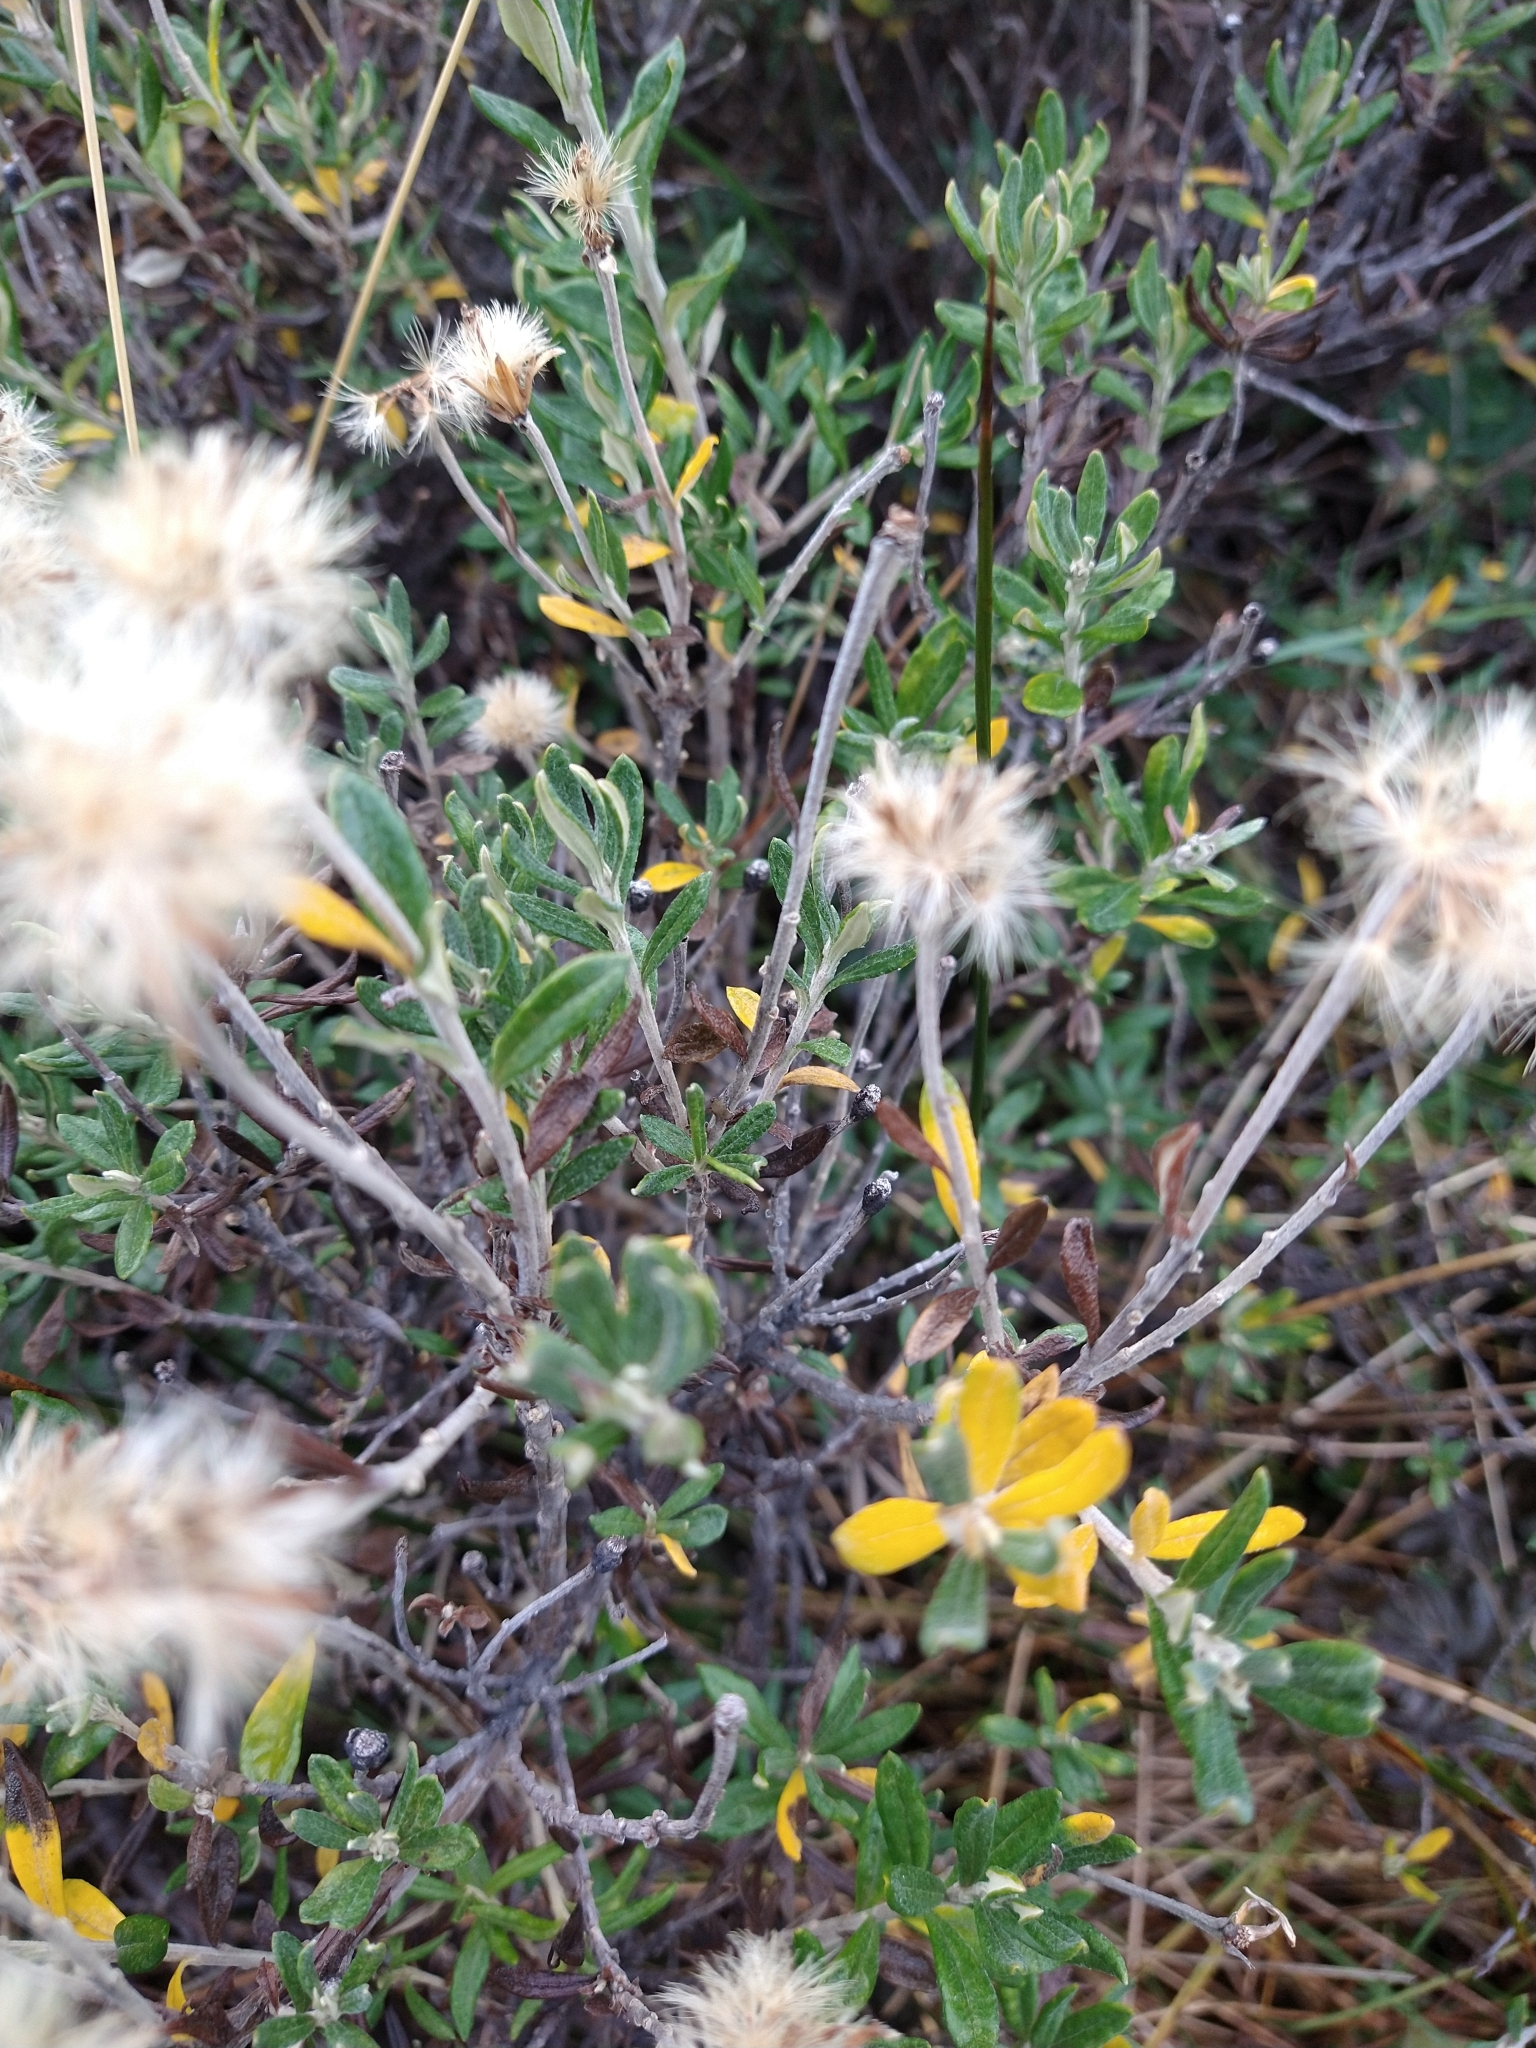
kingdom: Plantae
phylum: Tracheophyta
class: Magnoliopsida
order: Asterales
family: Asteraceae
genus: Chiliotrichum
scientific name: Chiliotrichum diffusum
